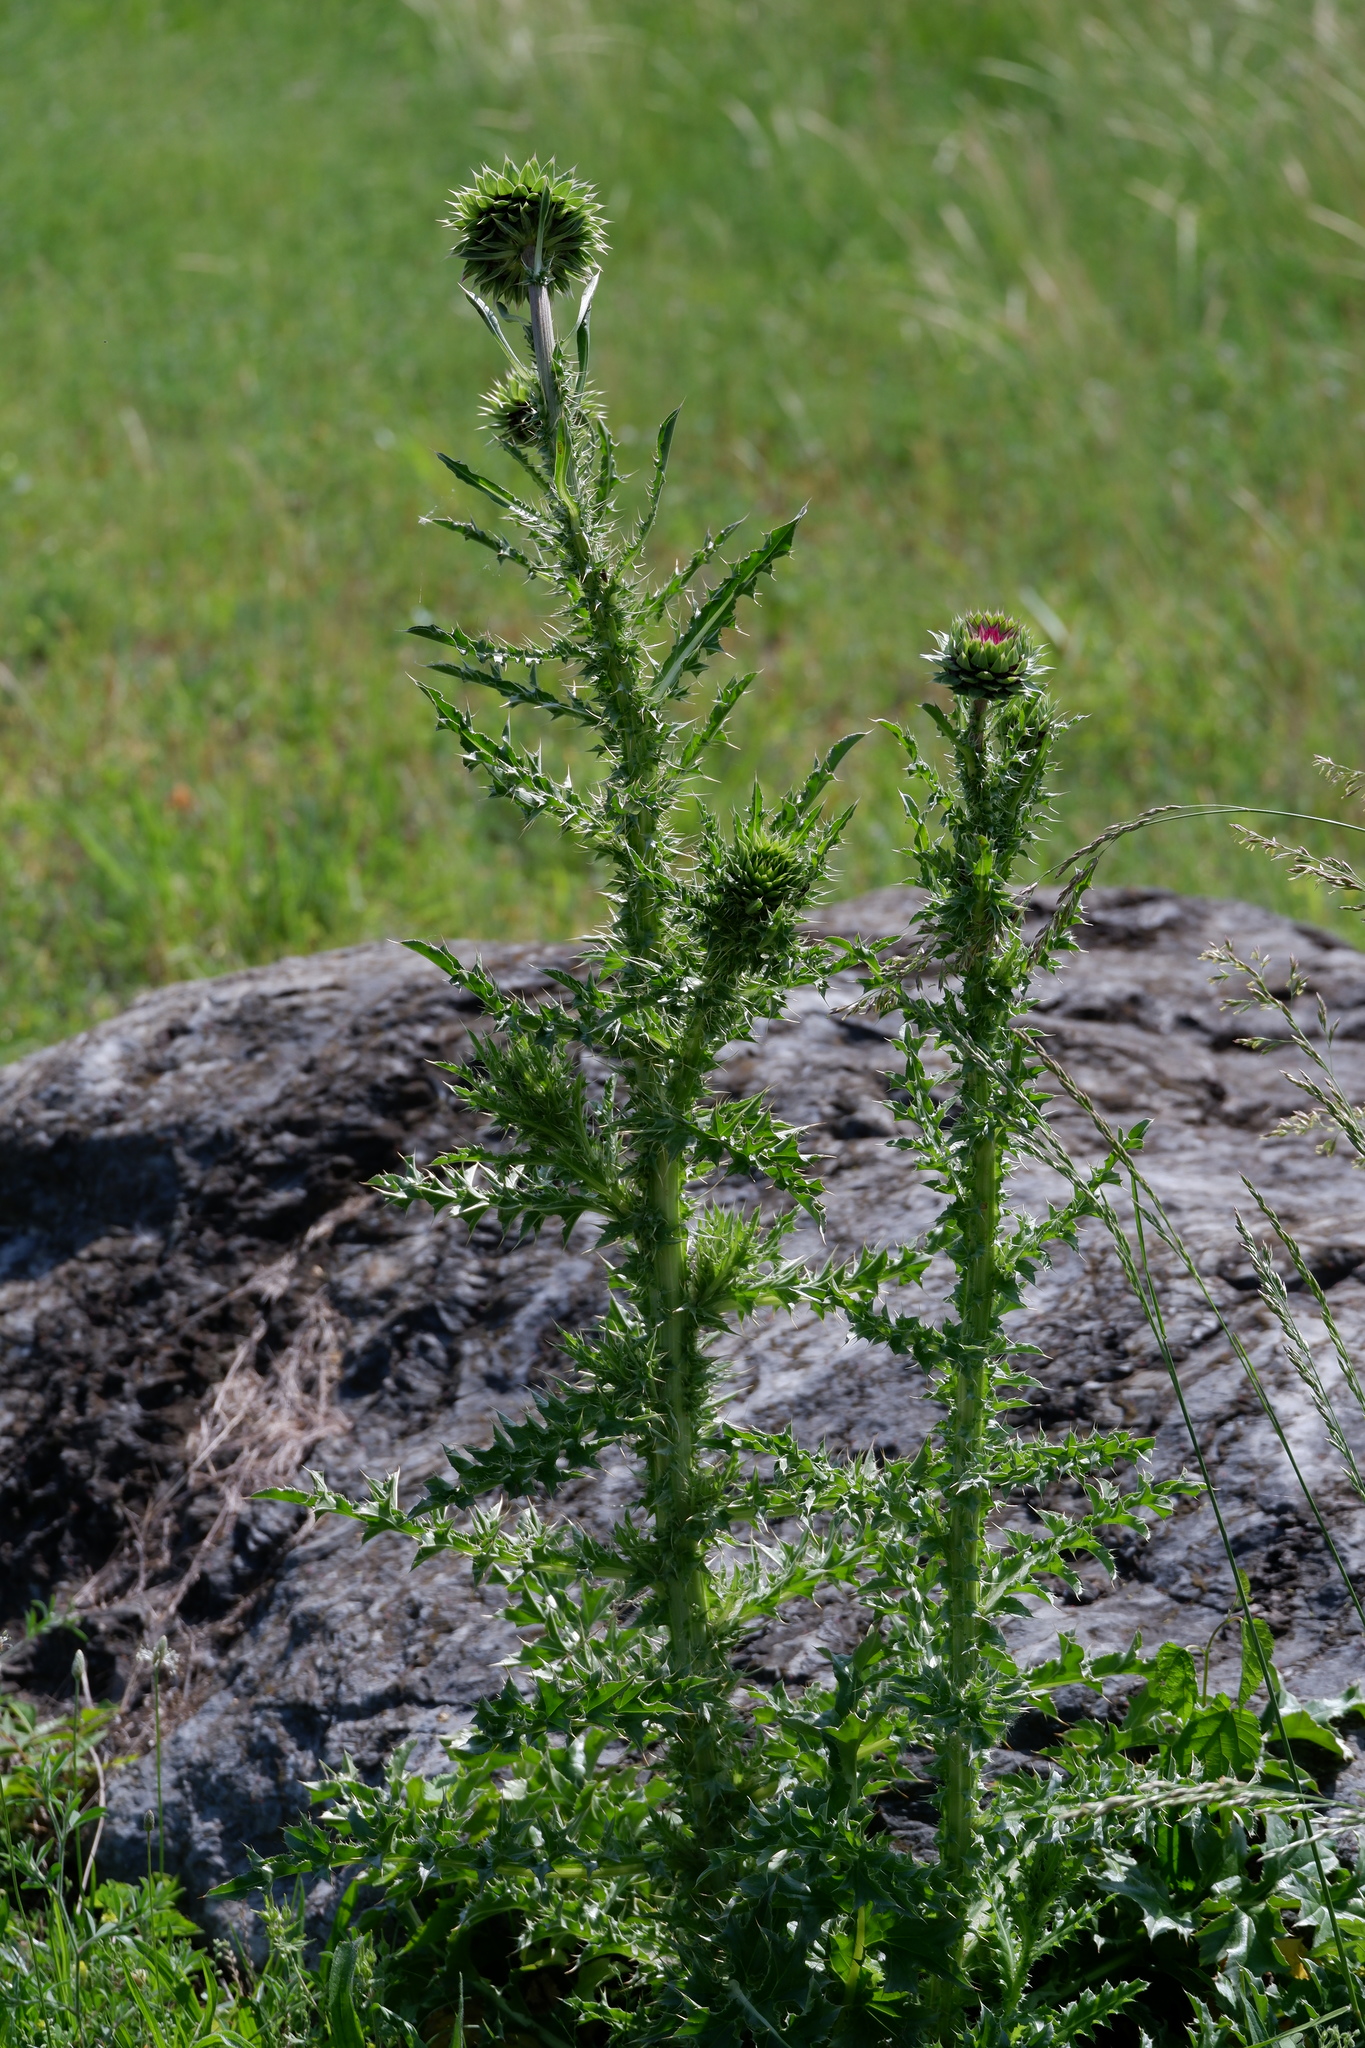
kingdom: Plantae
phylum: Tracheophyta
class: Magnoliopsida
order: Asterales
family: Asteraceae
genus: Carduus
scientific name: Carduus nutans
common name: Musk thistle
